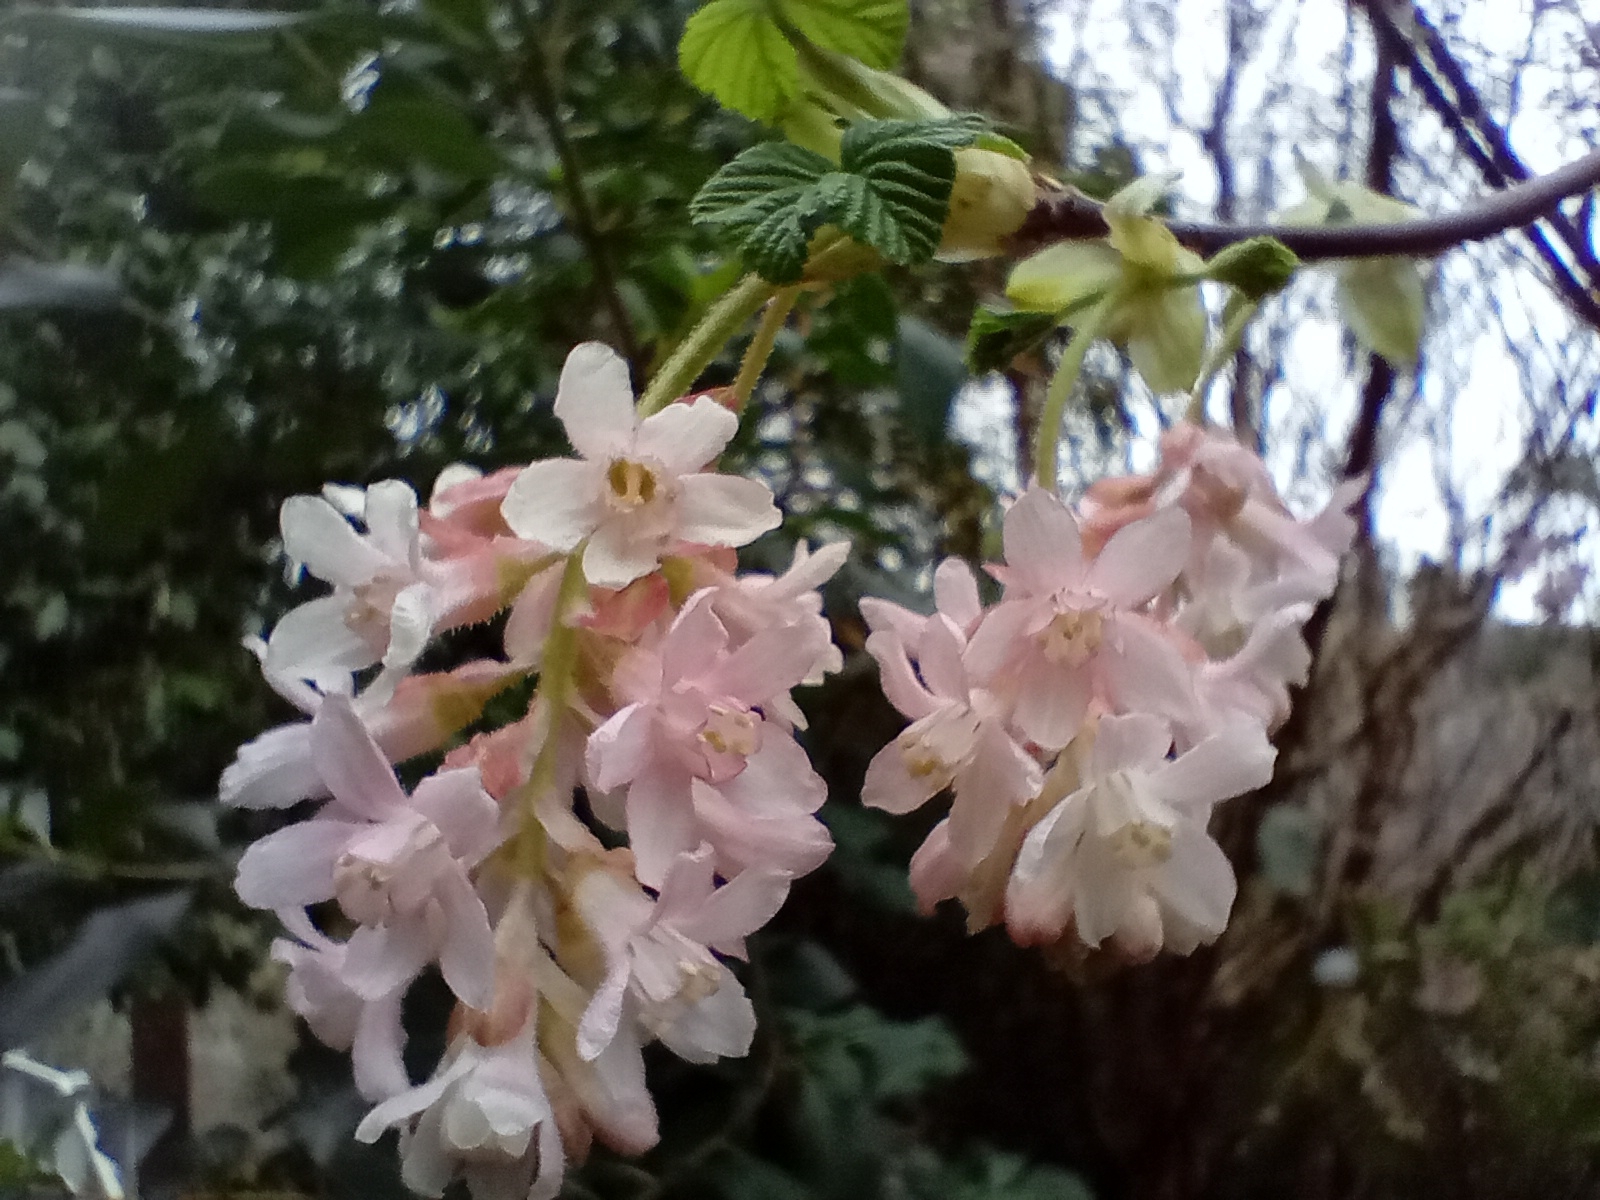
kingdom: Plantae
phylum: Tracheophyta
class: Magnoliopsida
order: Saxifragales
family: Grossulariaceae
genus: Ribes
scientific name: Ribes sanguineum
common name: Flowering currant
